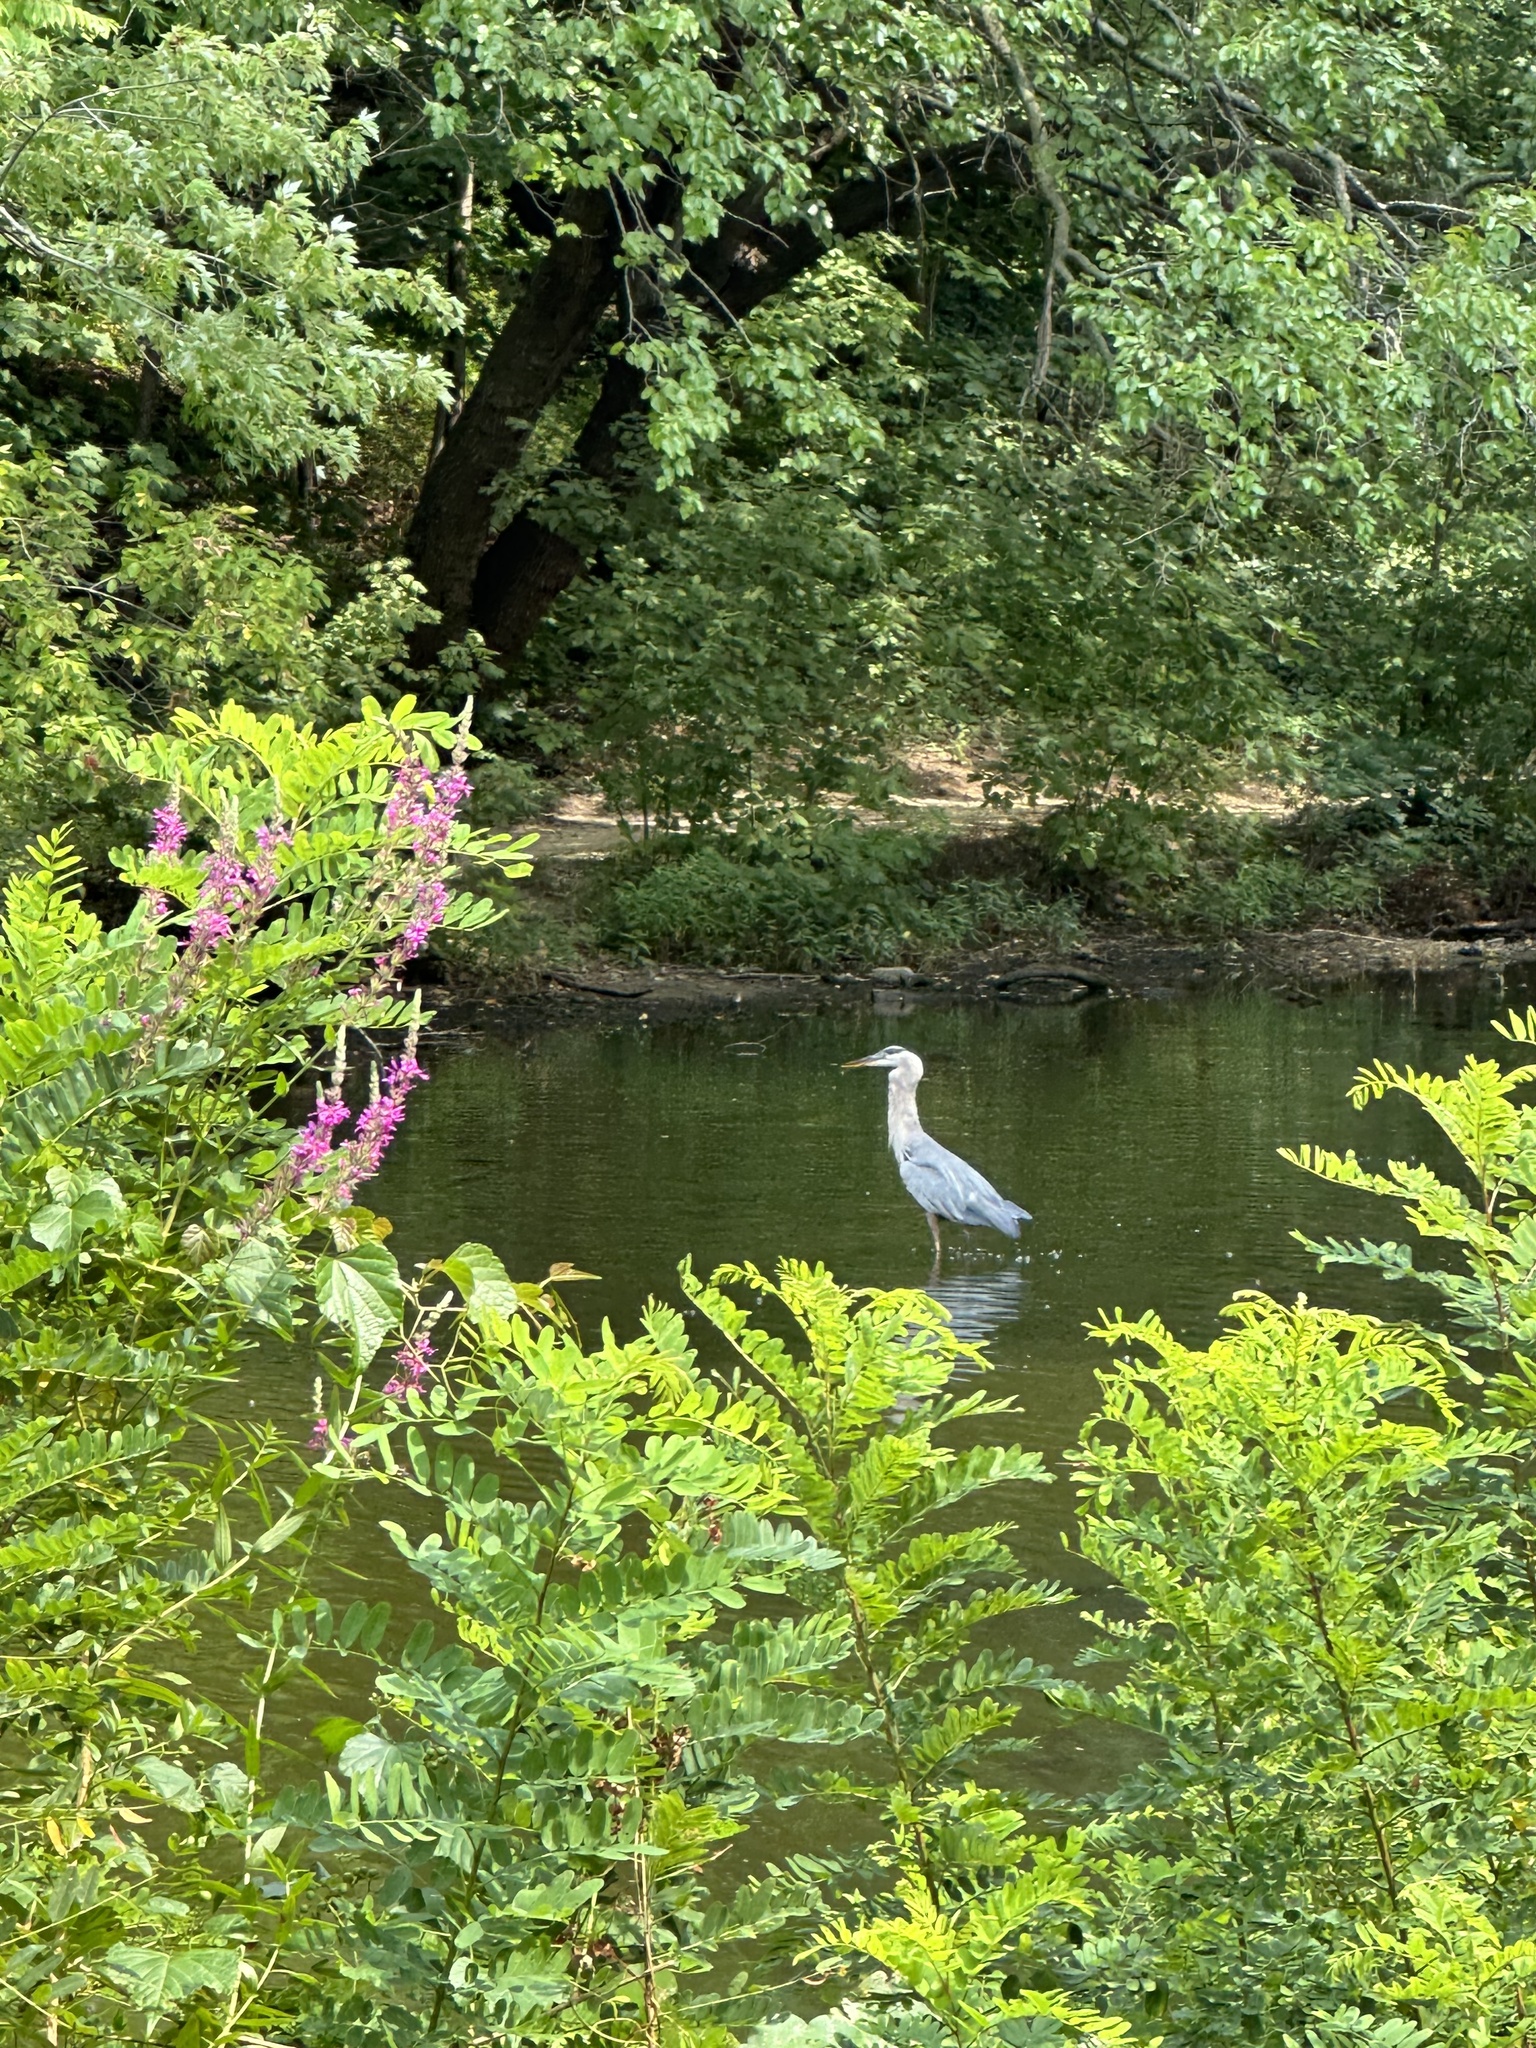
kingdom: Animalia
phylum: Chordata
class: Aves
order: Pelecaniformes
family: Ardeidae
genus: Ardea
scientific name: Ardea herodias
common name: Great blue heron
